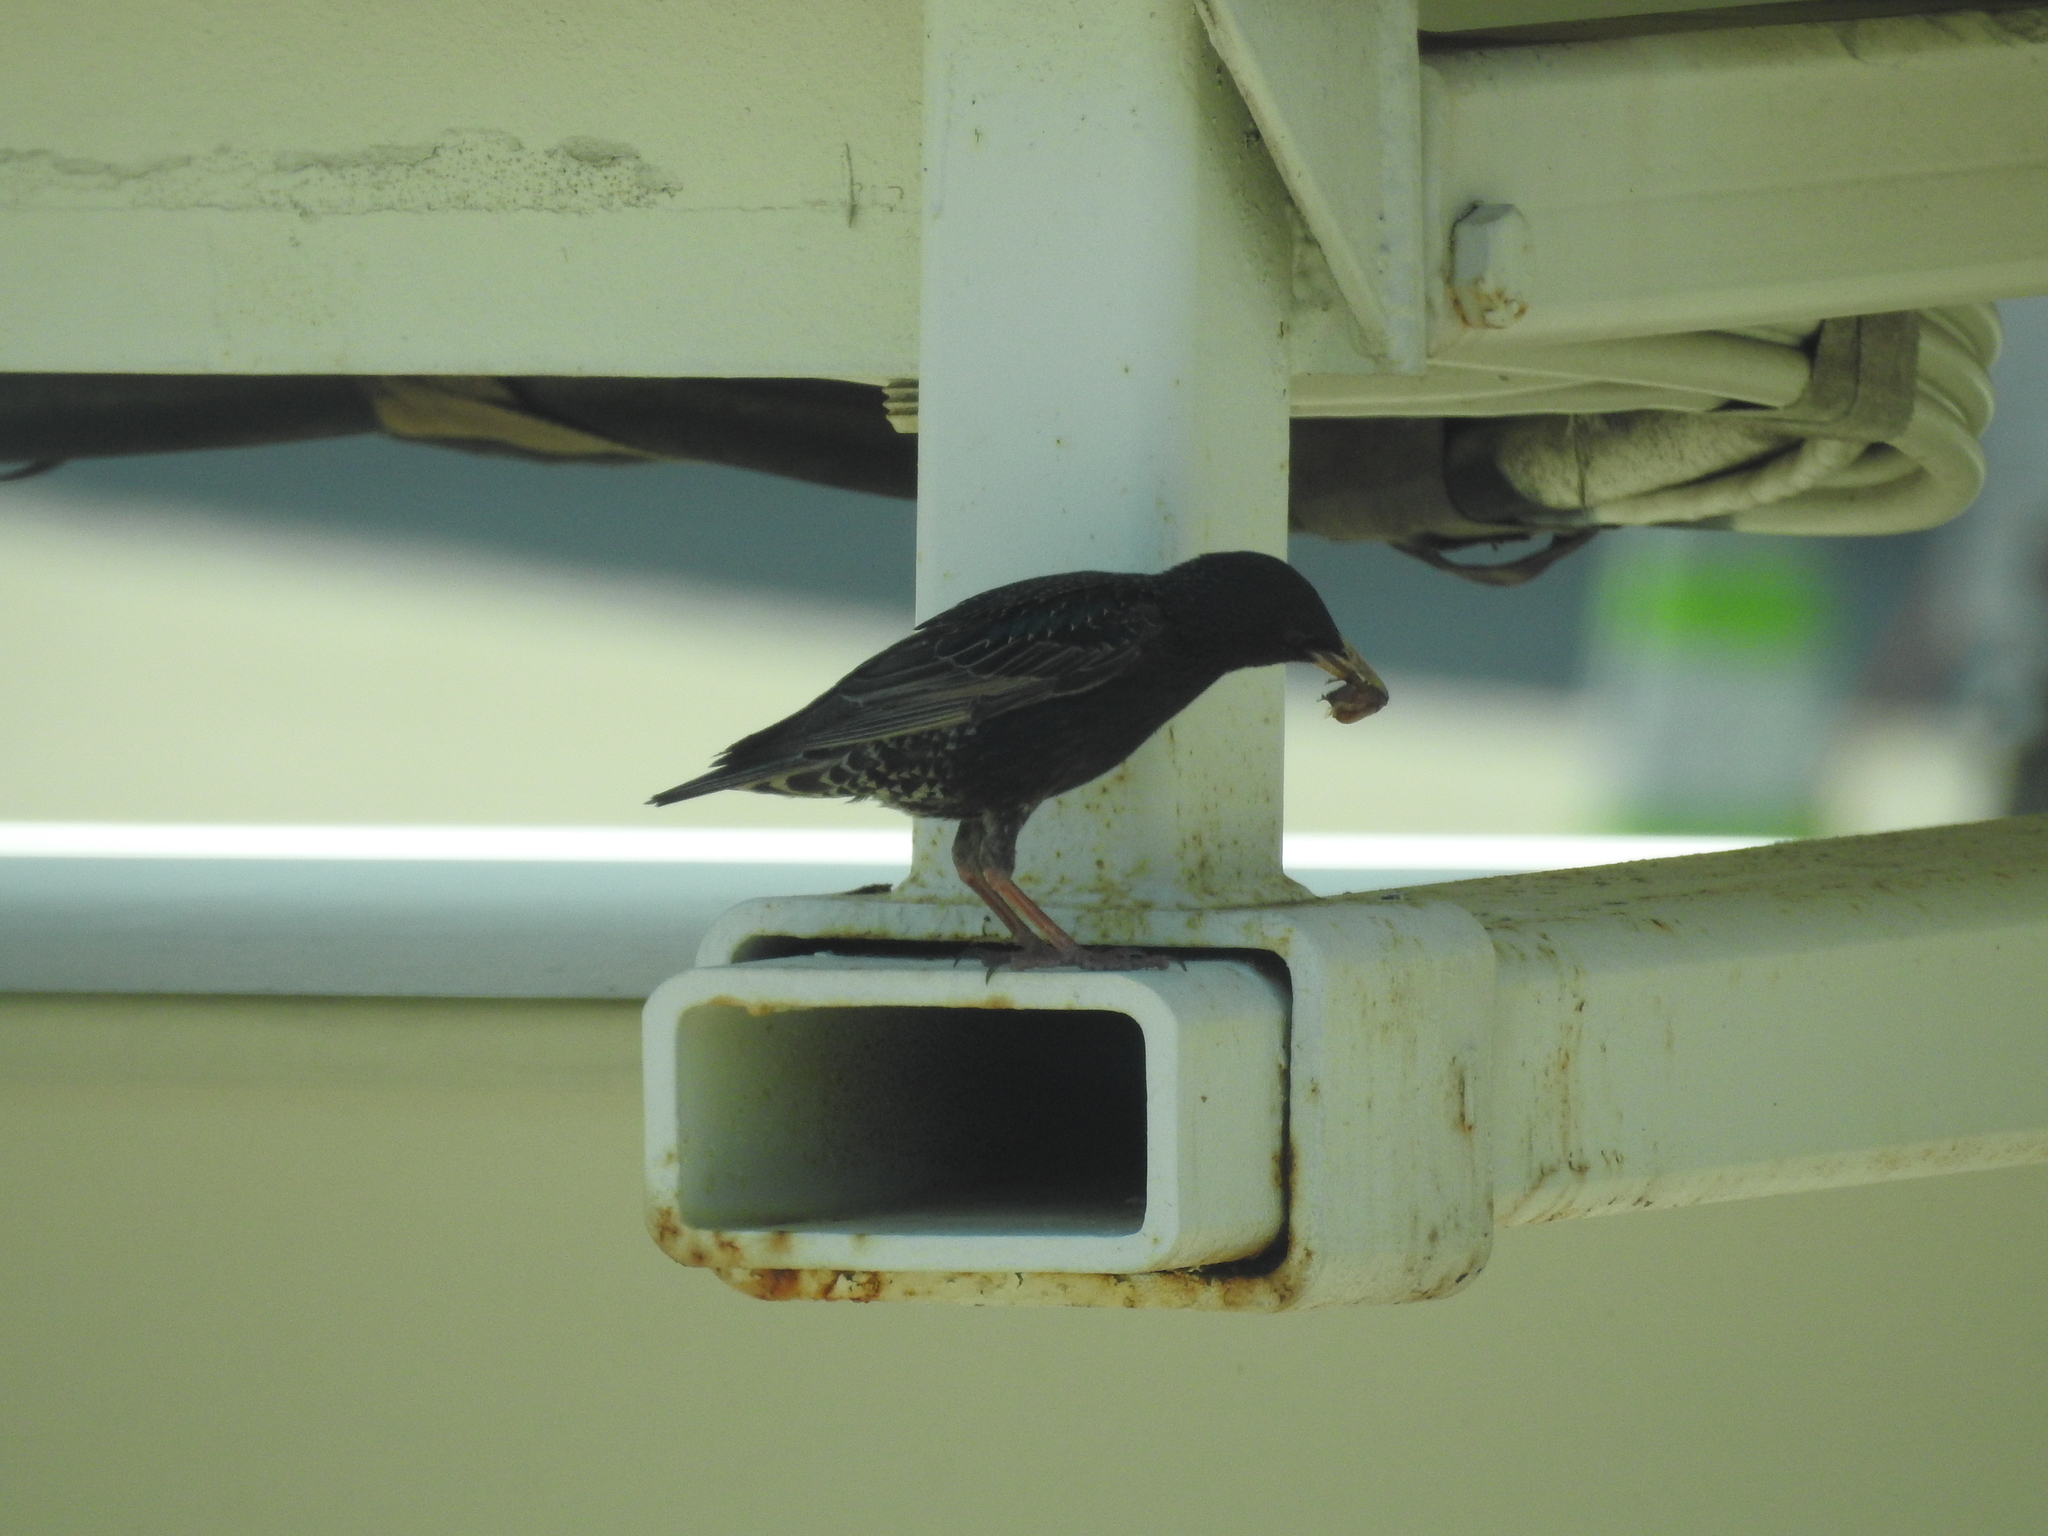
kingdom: Animalia
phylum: Chordata
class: Aves
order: Passeriformes
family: Sturnidae
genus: Sturnus
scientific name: Sturnus vulgaris
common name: Common starling
